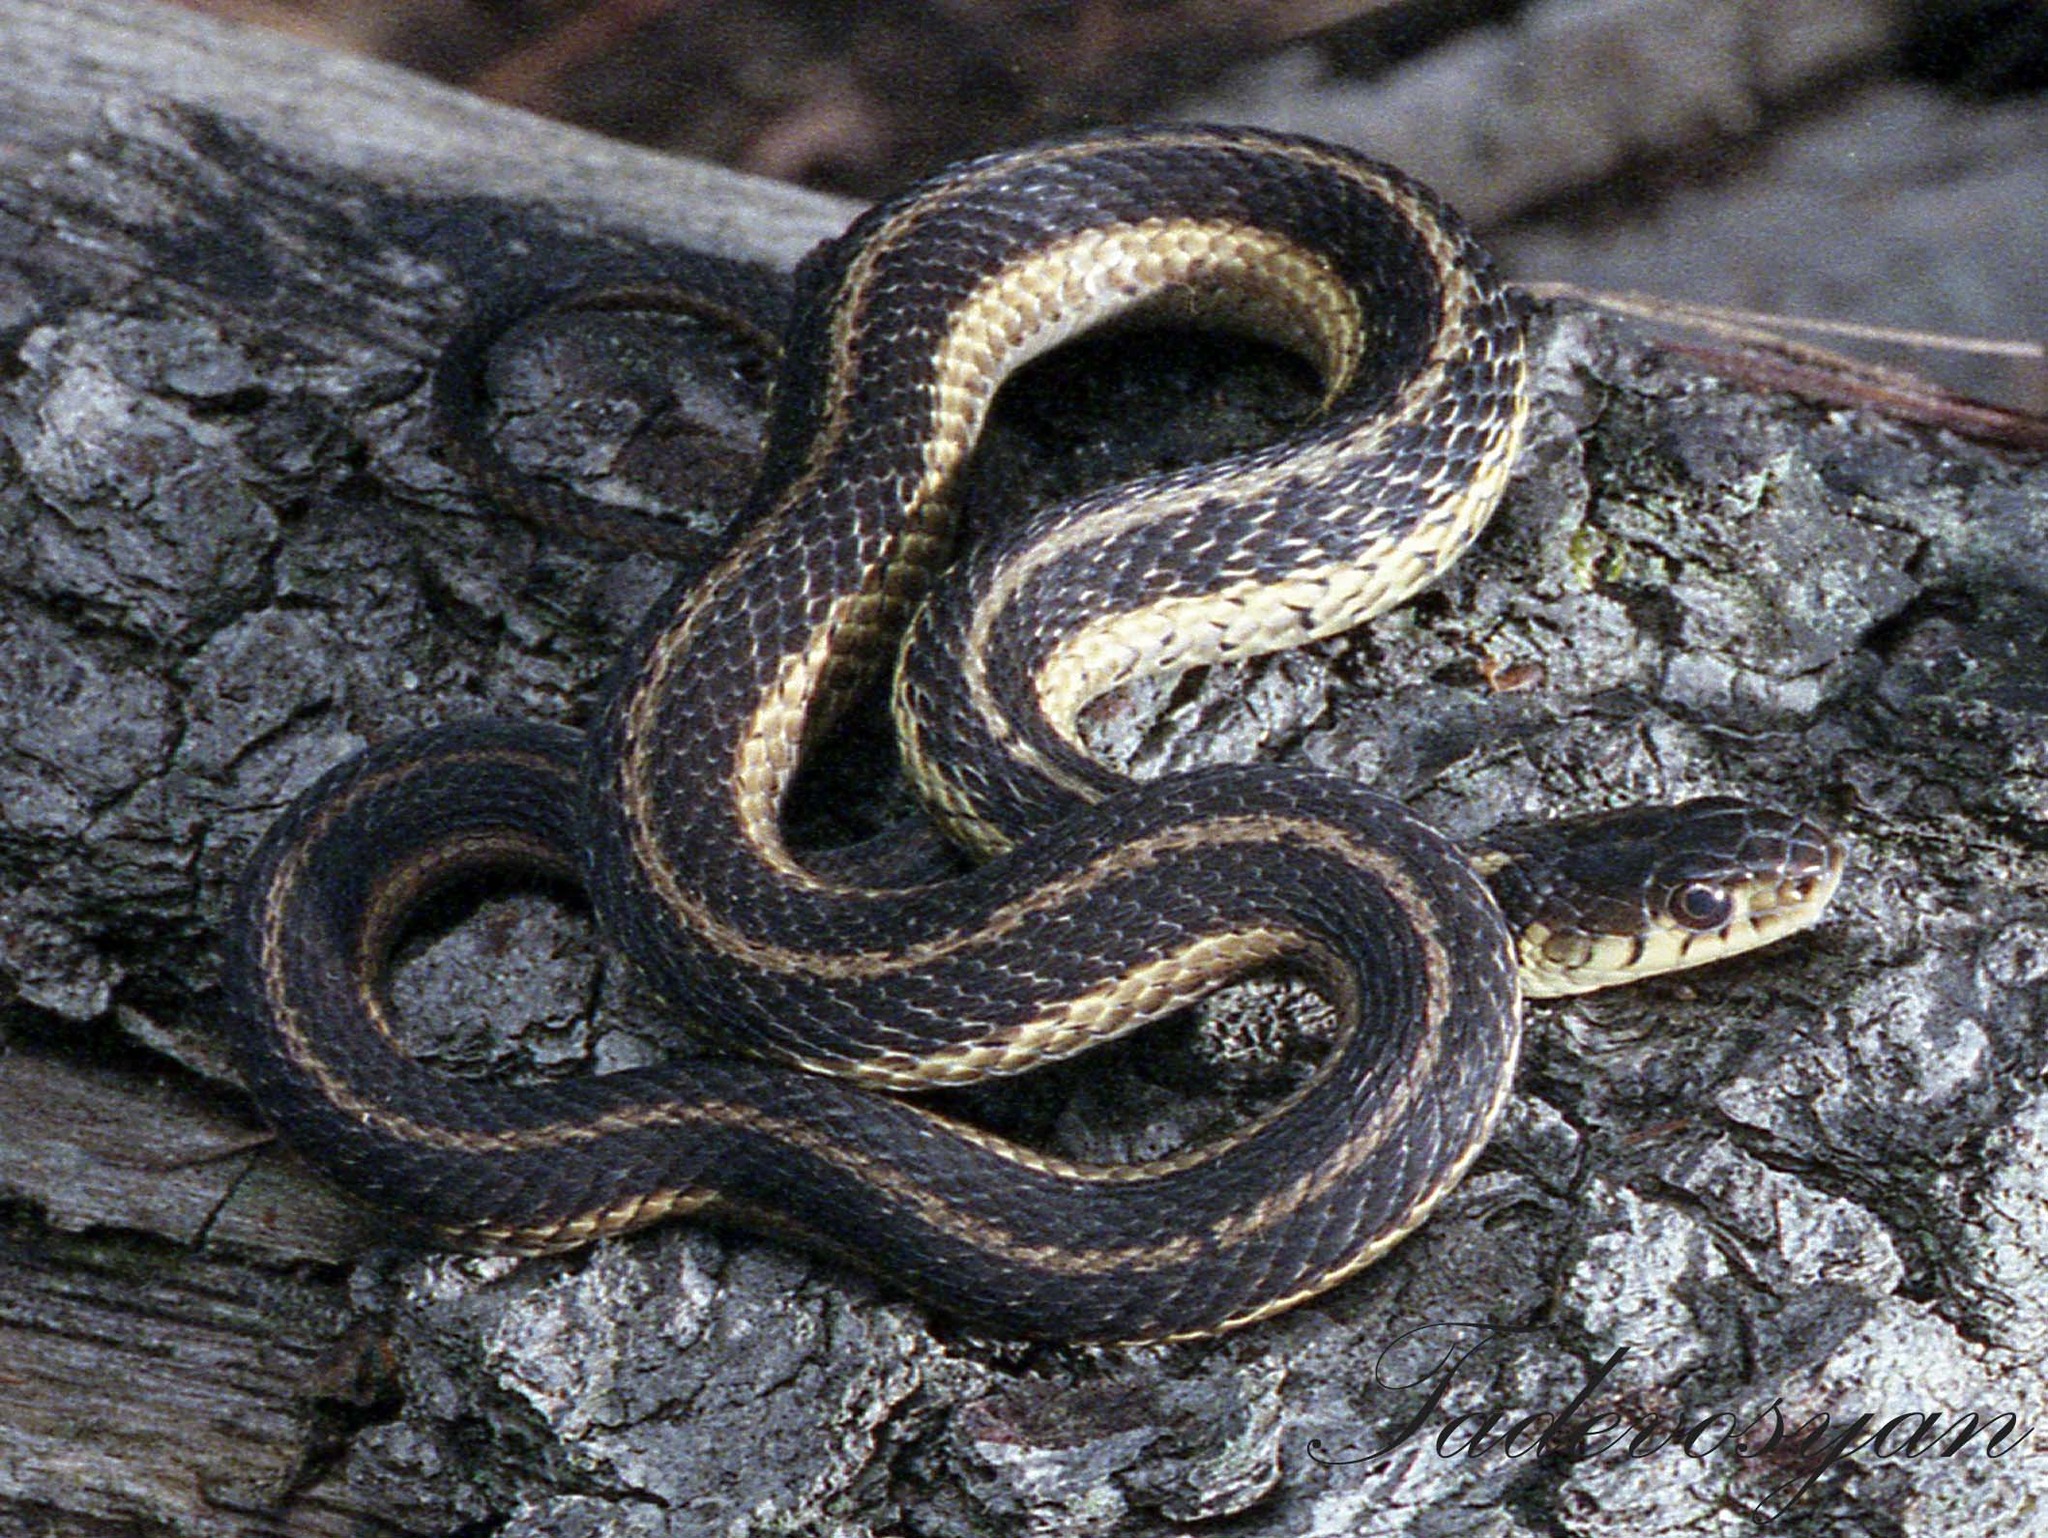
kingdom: Animalia
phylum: Chordata
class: Squamata
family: Colubridae
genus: Thamnophis
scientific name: Thamnophis sirtalis
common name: Common garter snake
